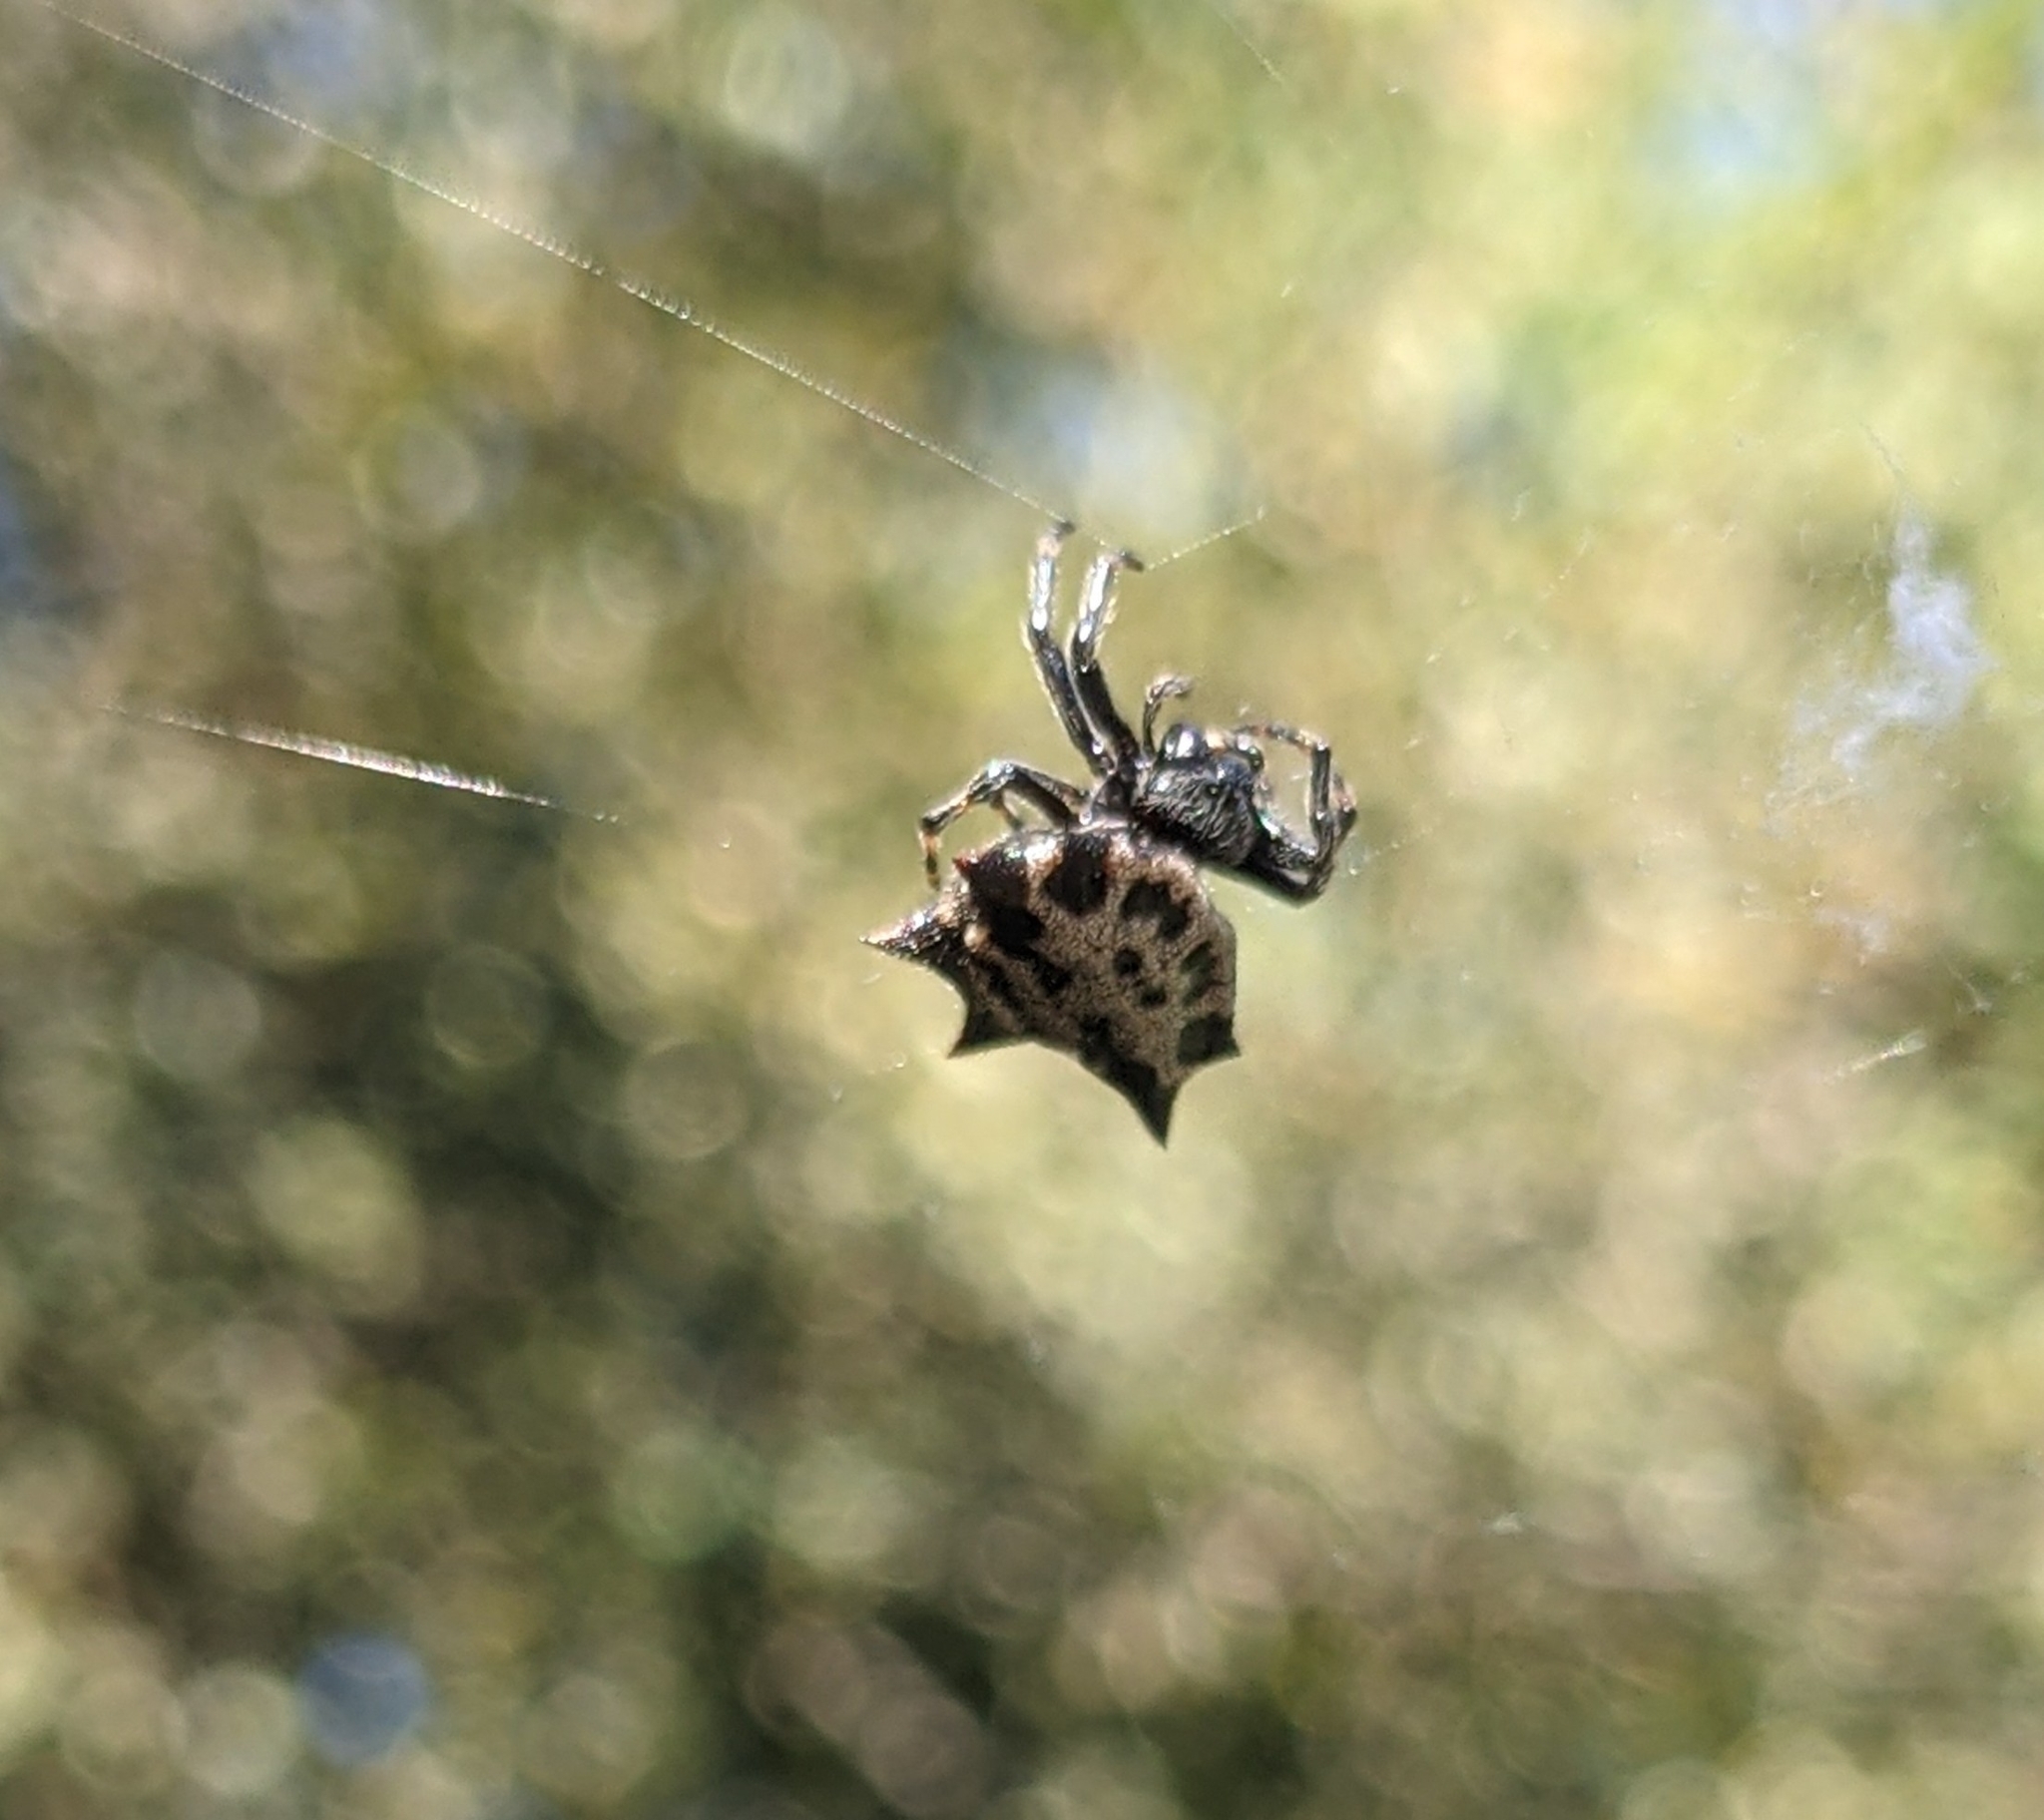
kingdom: Animalia
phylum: Arthropoda
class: Arachnida
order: Araneae
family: Araneidae
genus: Gasteracantha
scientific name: Gasteracantha cancriformis
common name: Orb weavers
